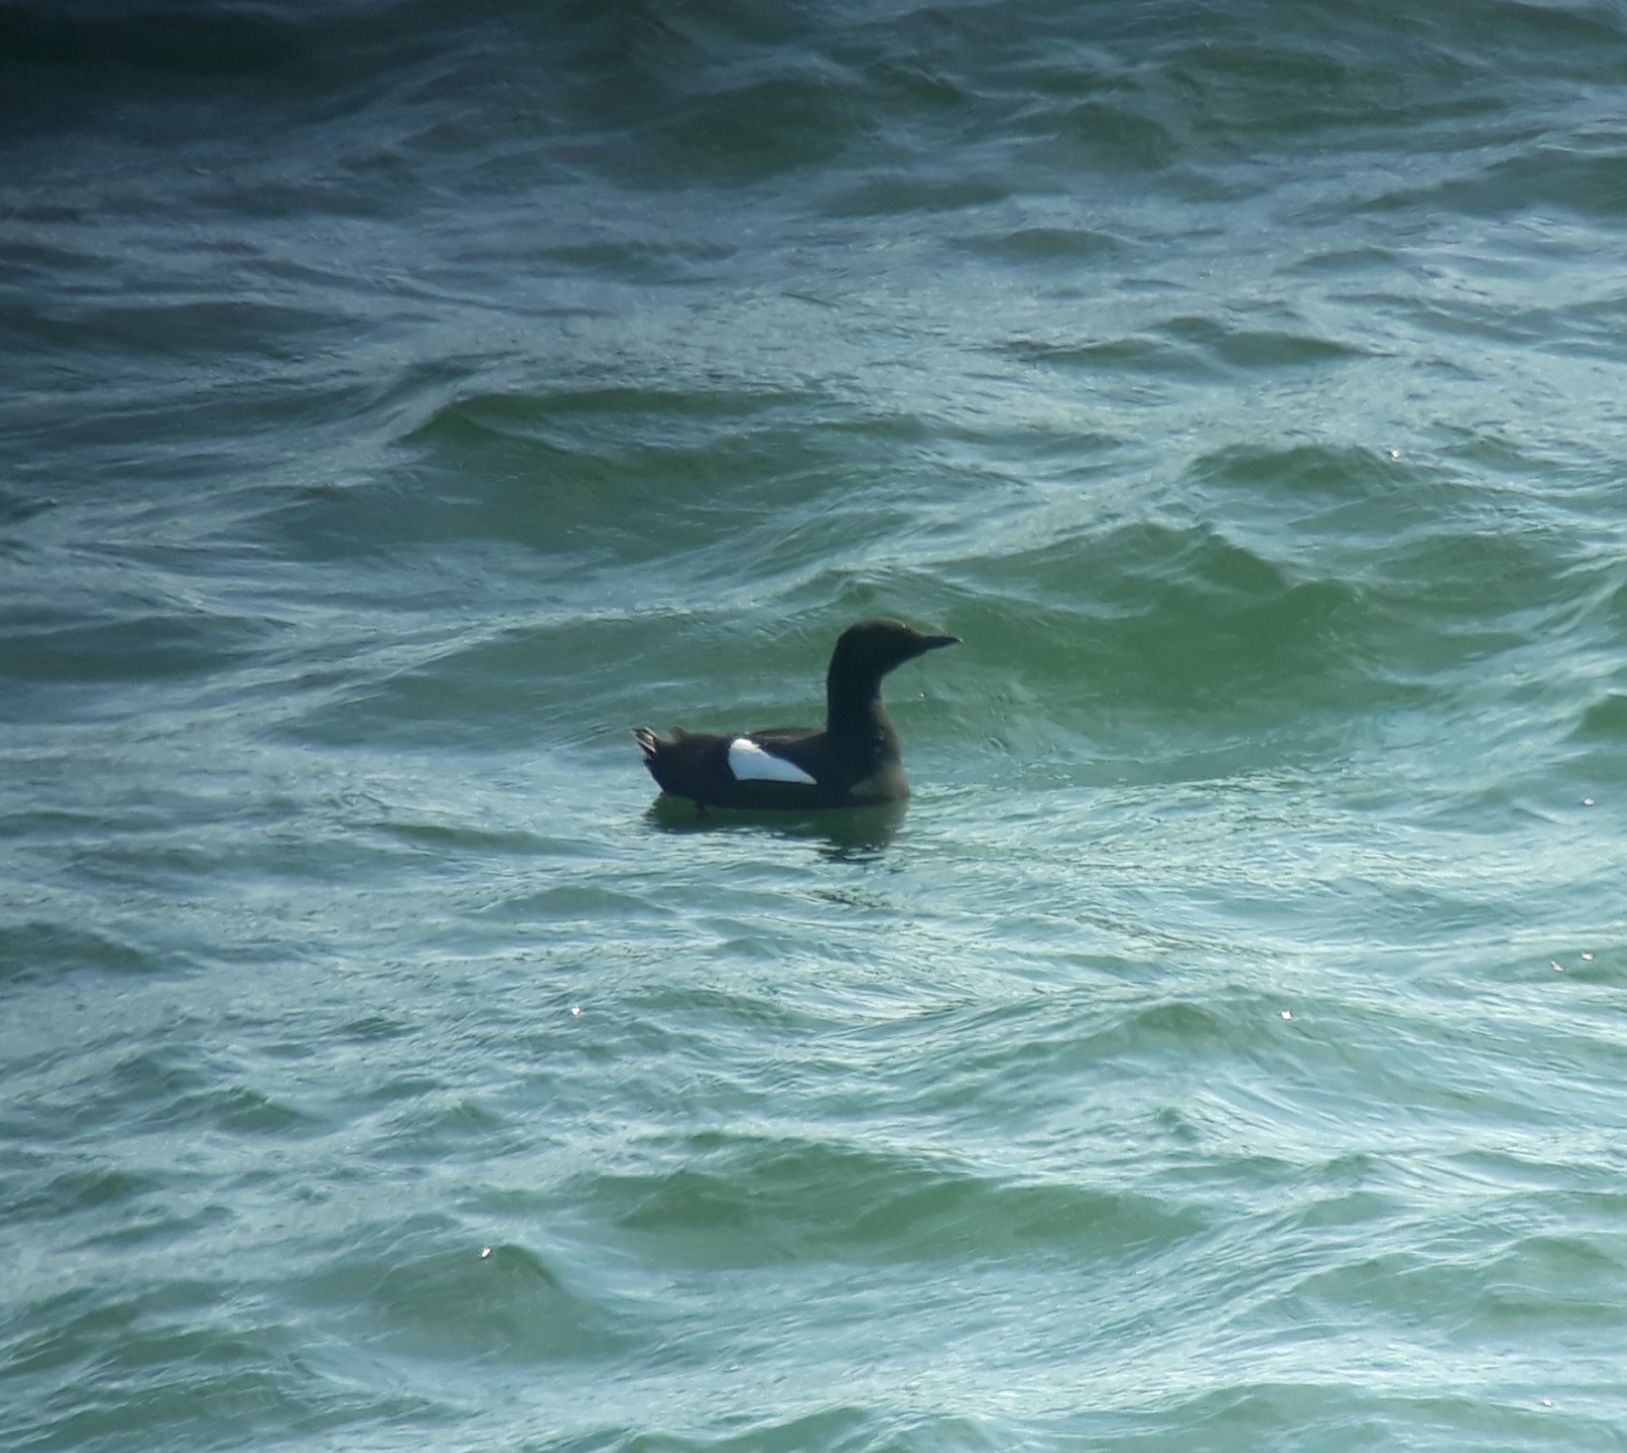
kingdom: Animalia
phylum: Chordata
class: Aves
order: Charadriiformes
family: Alcidae
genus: Cepphus
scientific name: Cepphus grylle
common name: Black guillemot
